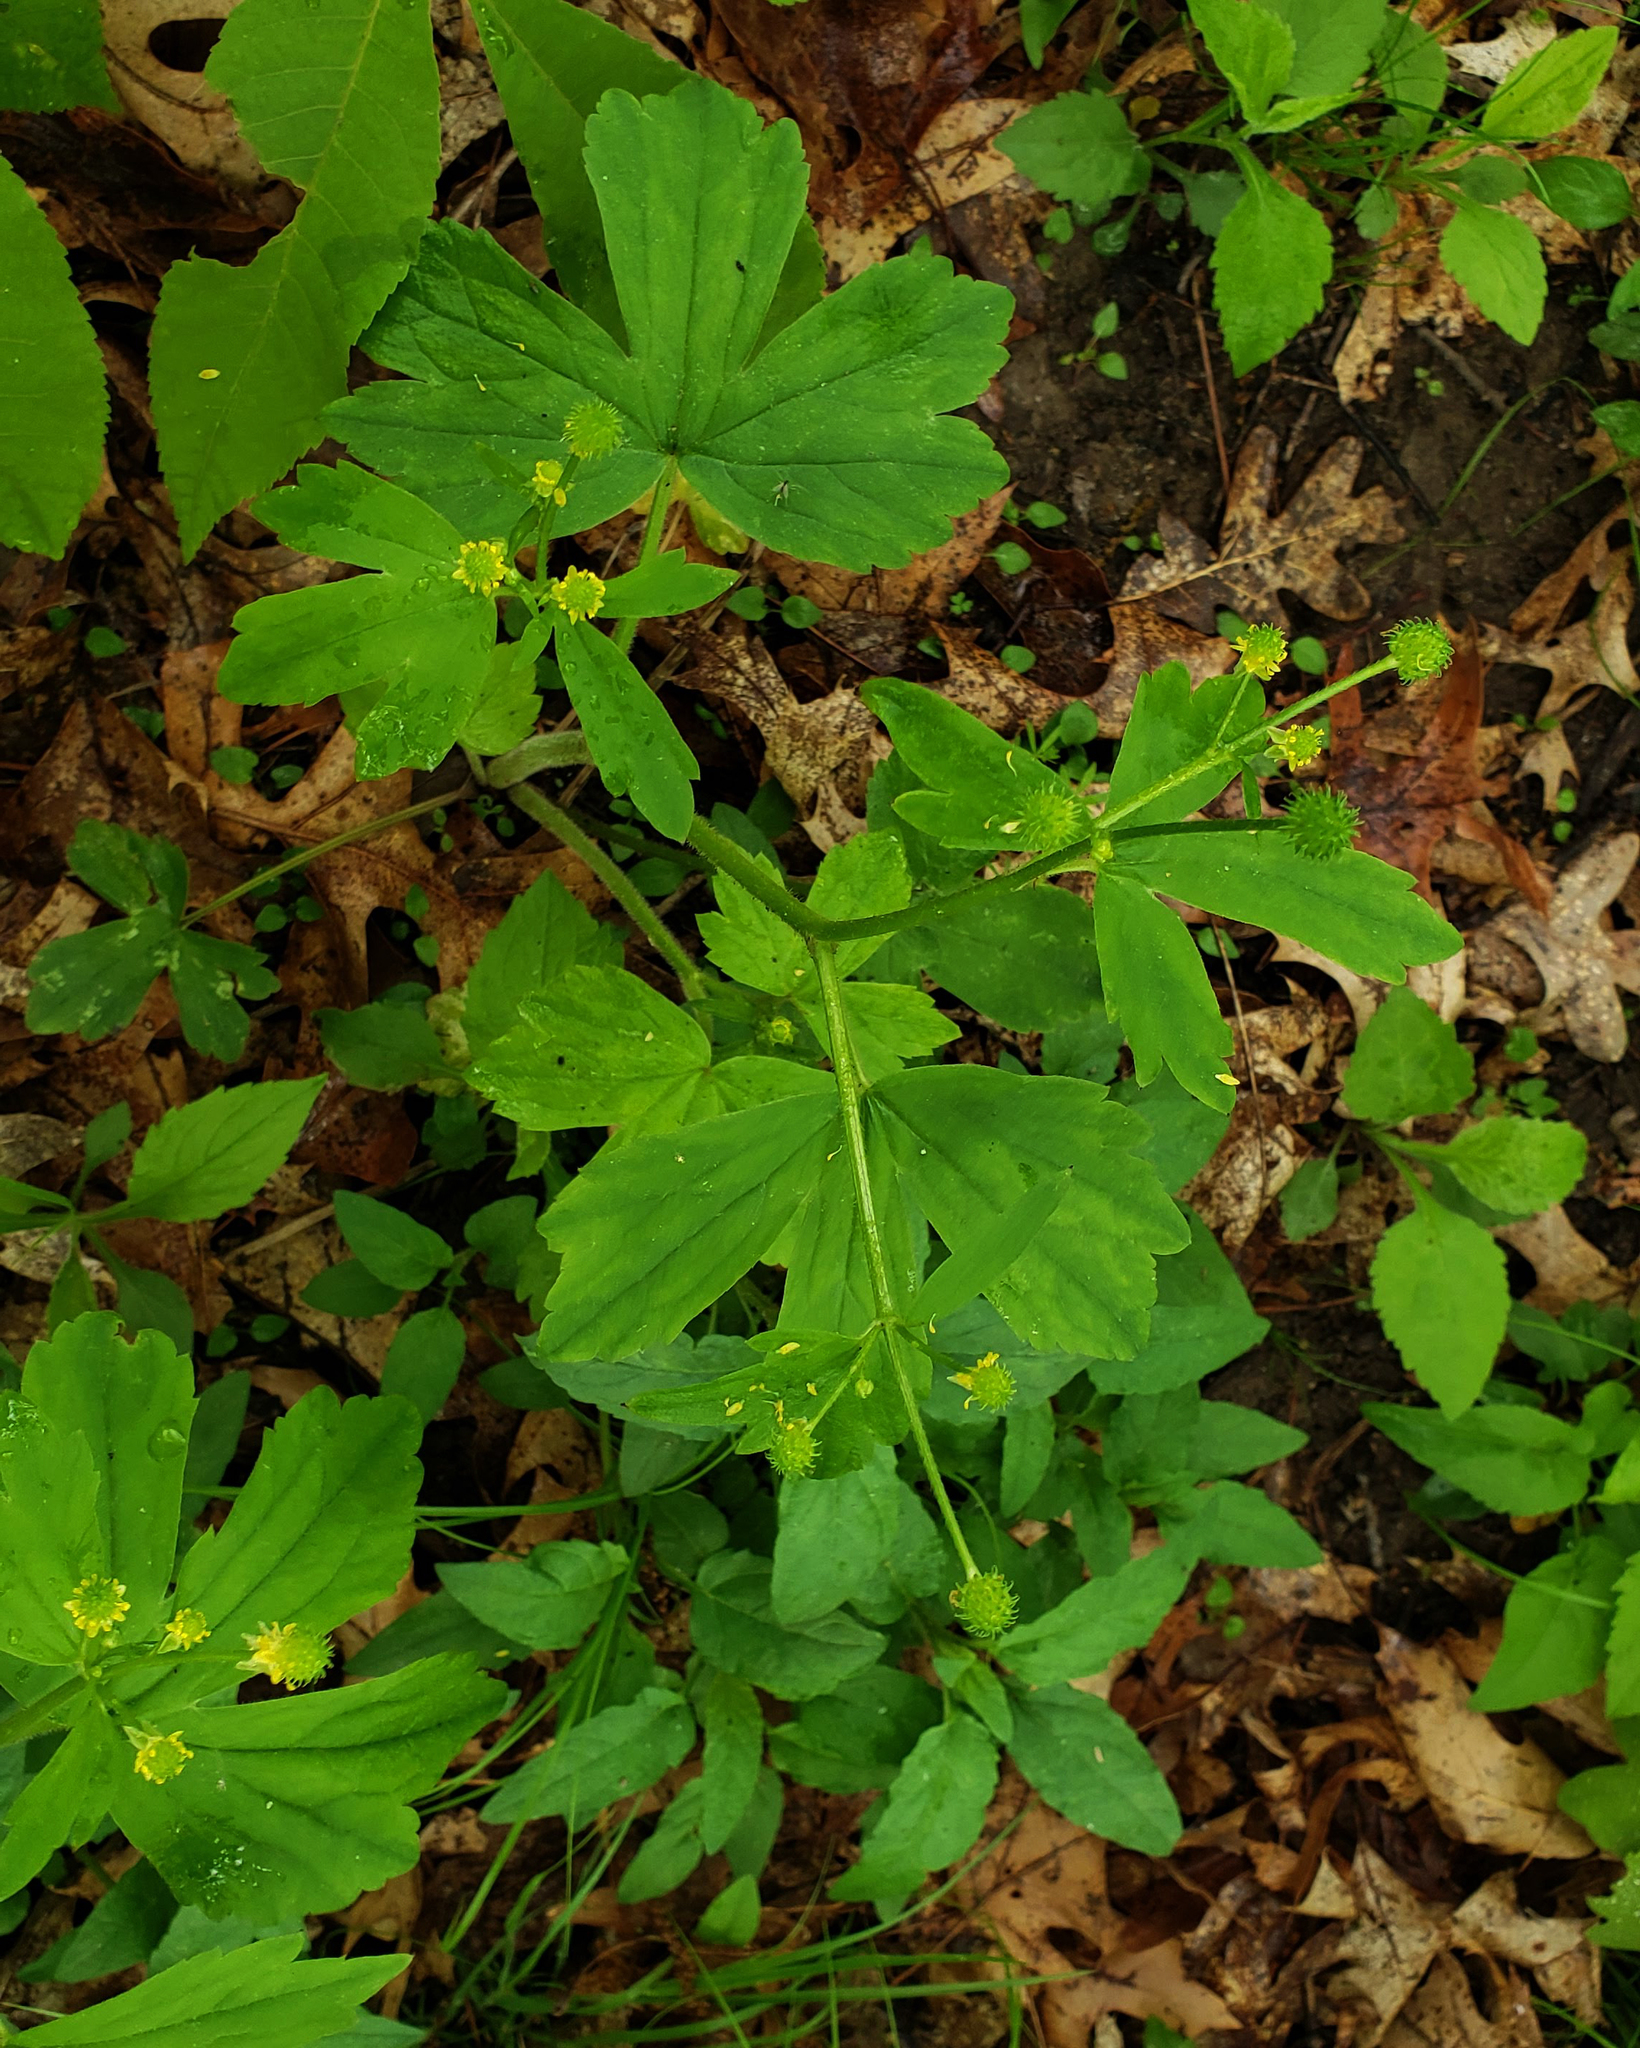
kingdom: Plantae
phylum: Tracheophyta
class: Magnoliopsida
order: Ranunculales
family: Ranunculaceae
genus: Ranunculus
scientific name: Ranunculus recurvatus
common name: Blisterwort
